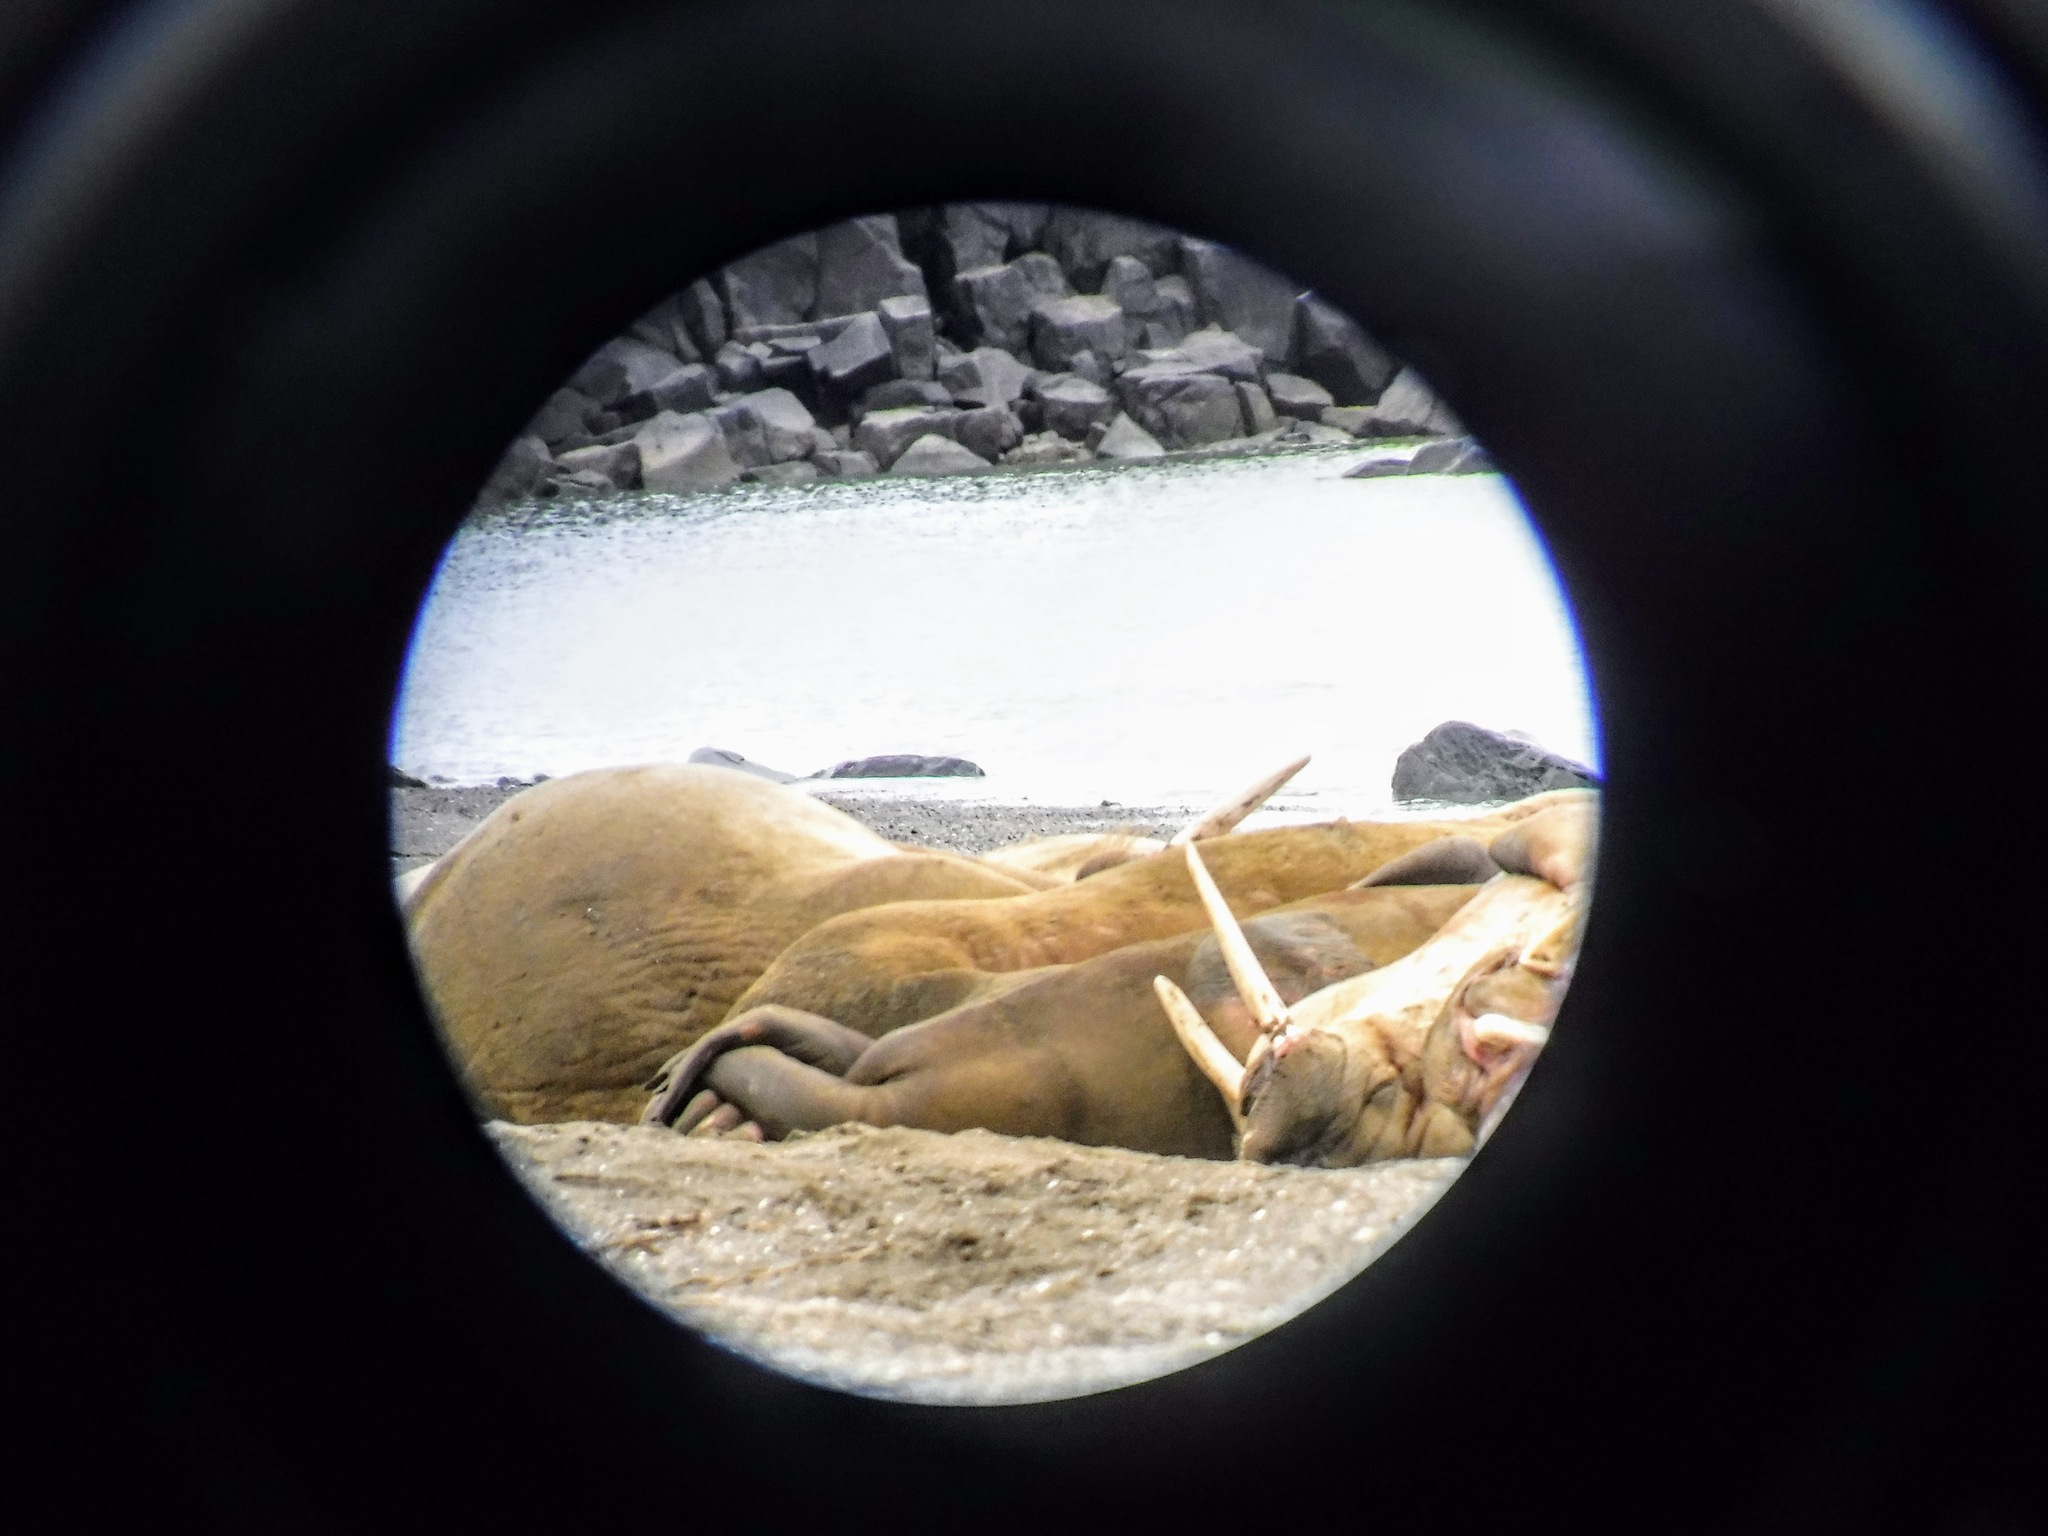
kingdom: Animalia
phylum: Chordata
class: Mammalia
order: Carnivora
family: Odobenidae
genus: Odobenus
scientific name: Odobenus rosmarus
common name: Walrus
